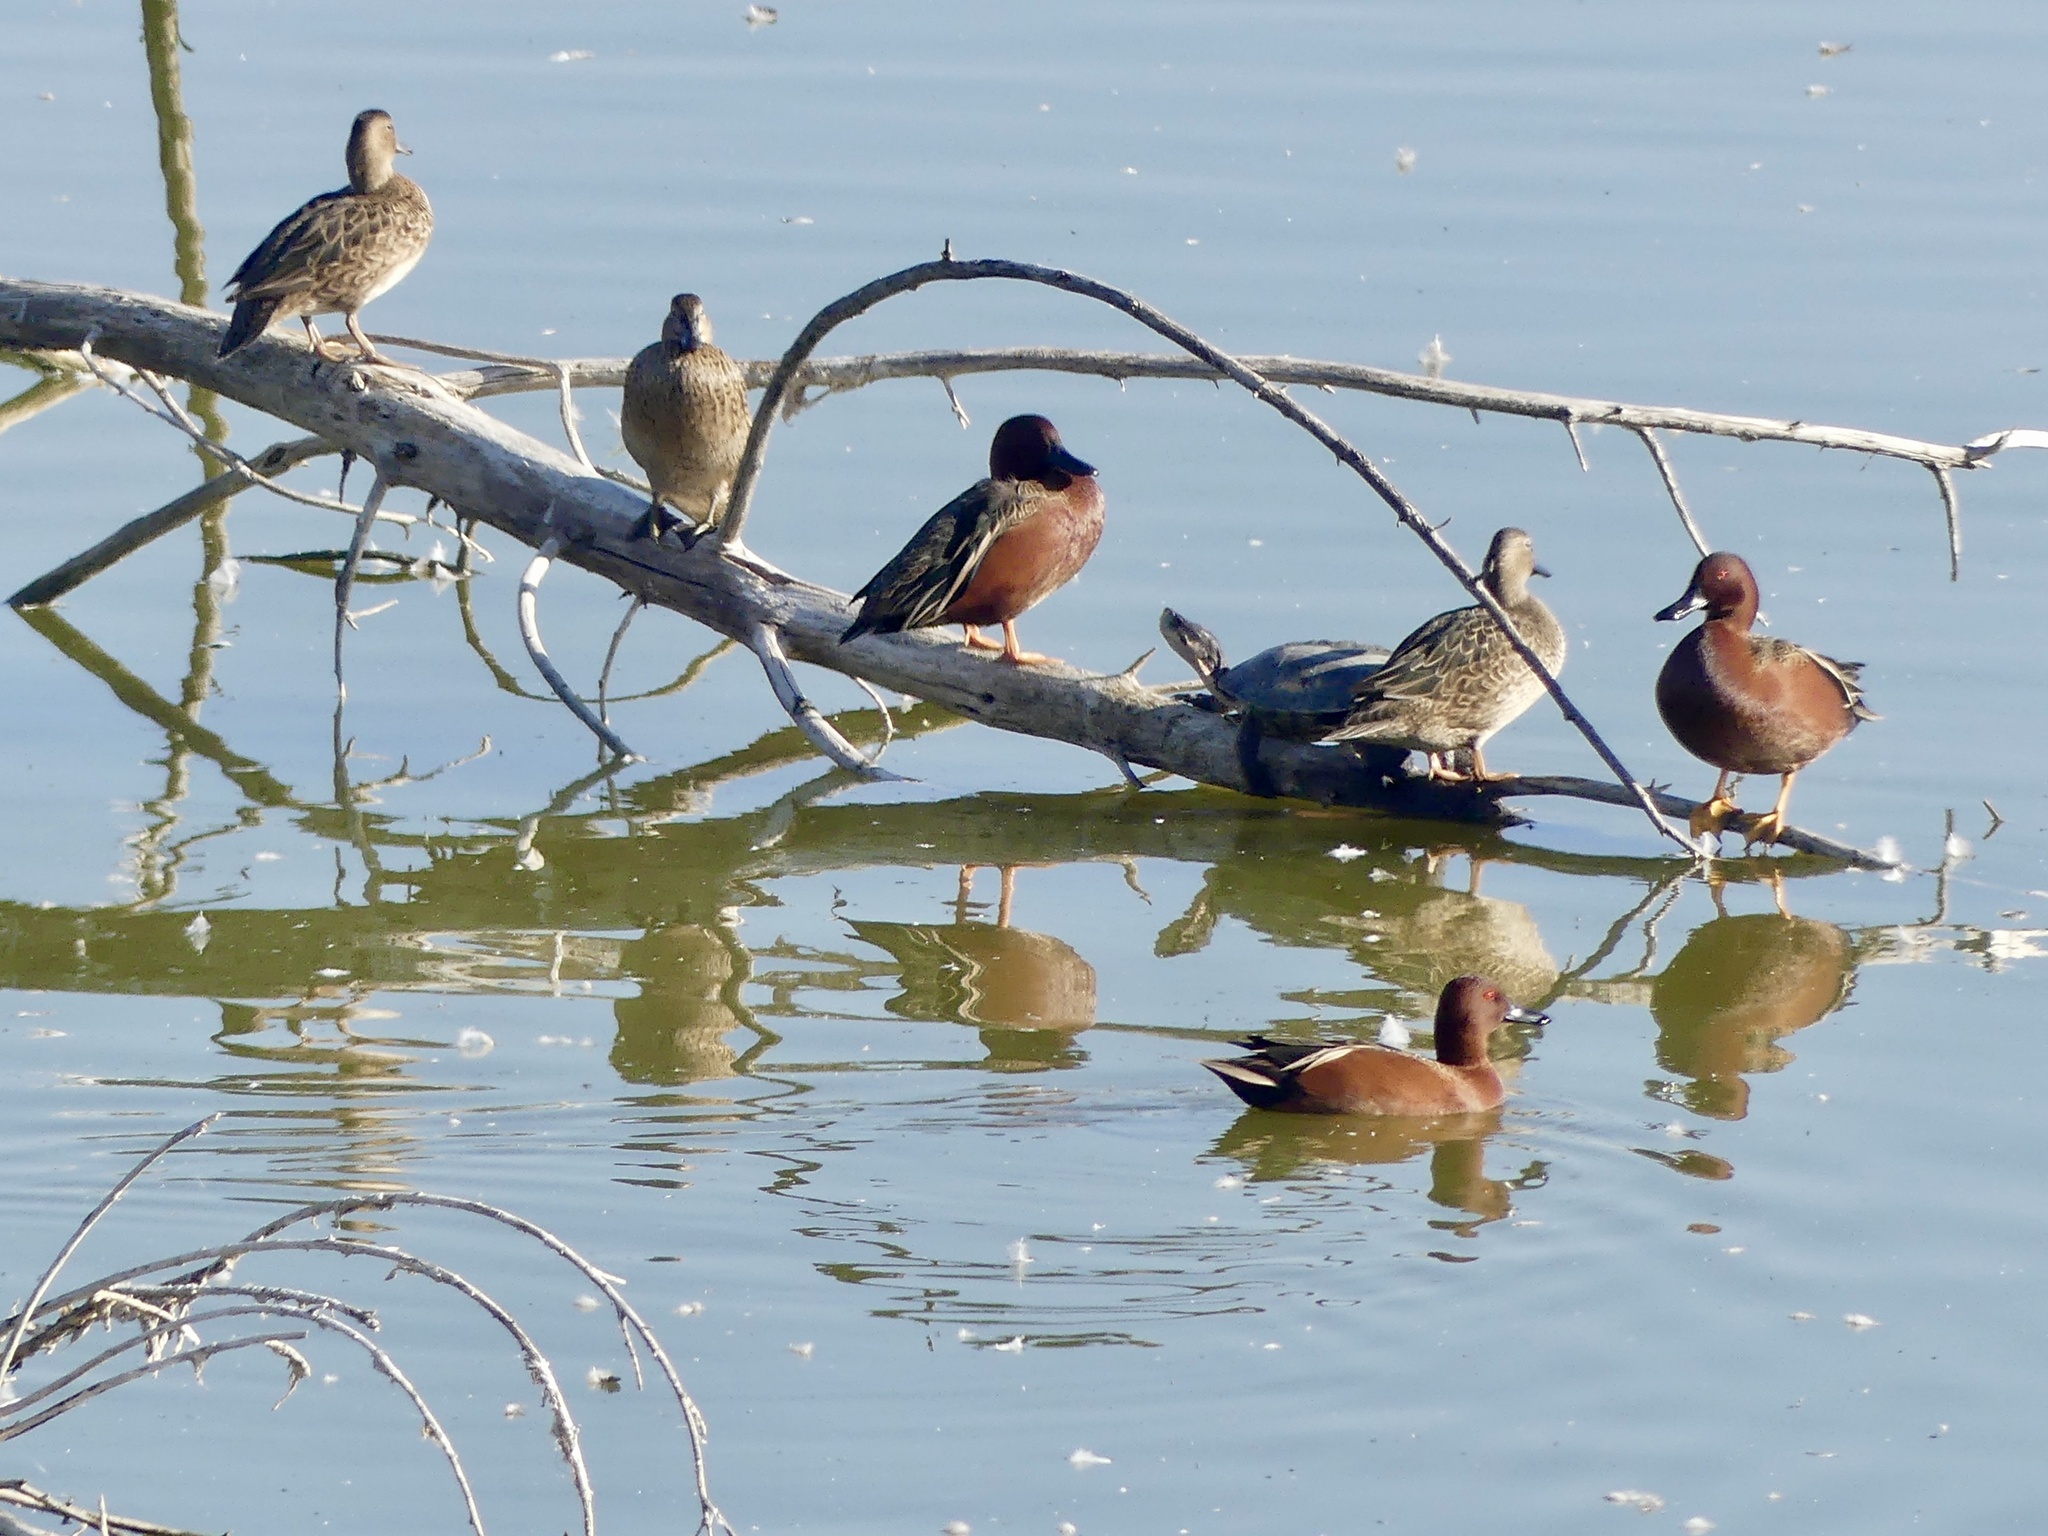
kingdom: Animalia
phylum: Chordata
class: Aves
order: Anseriformes
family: Anatidae
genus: Spatula
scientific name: Spatula cyanoptera
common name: Cinnamon teal
